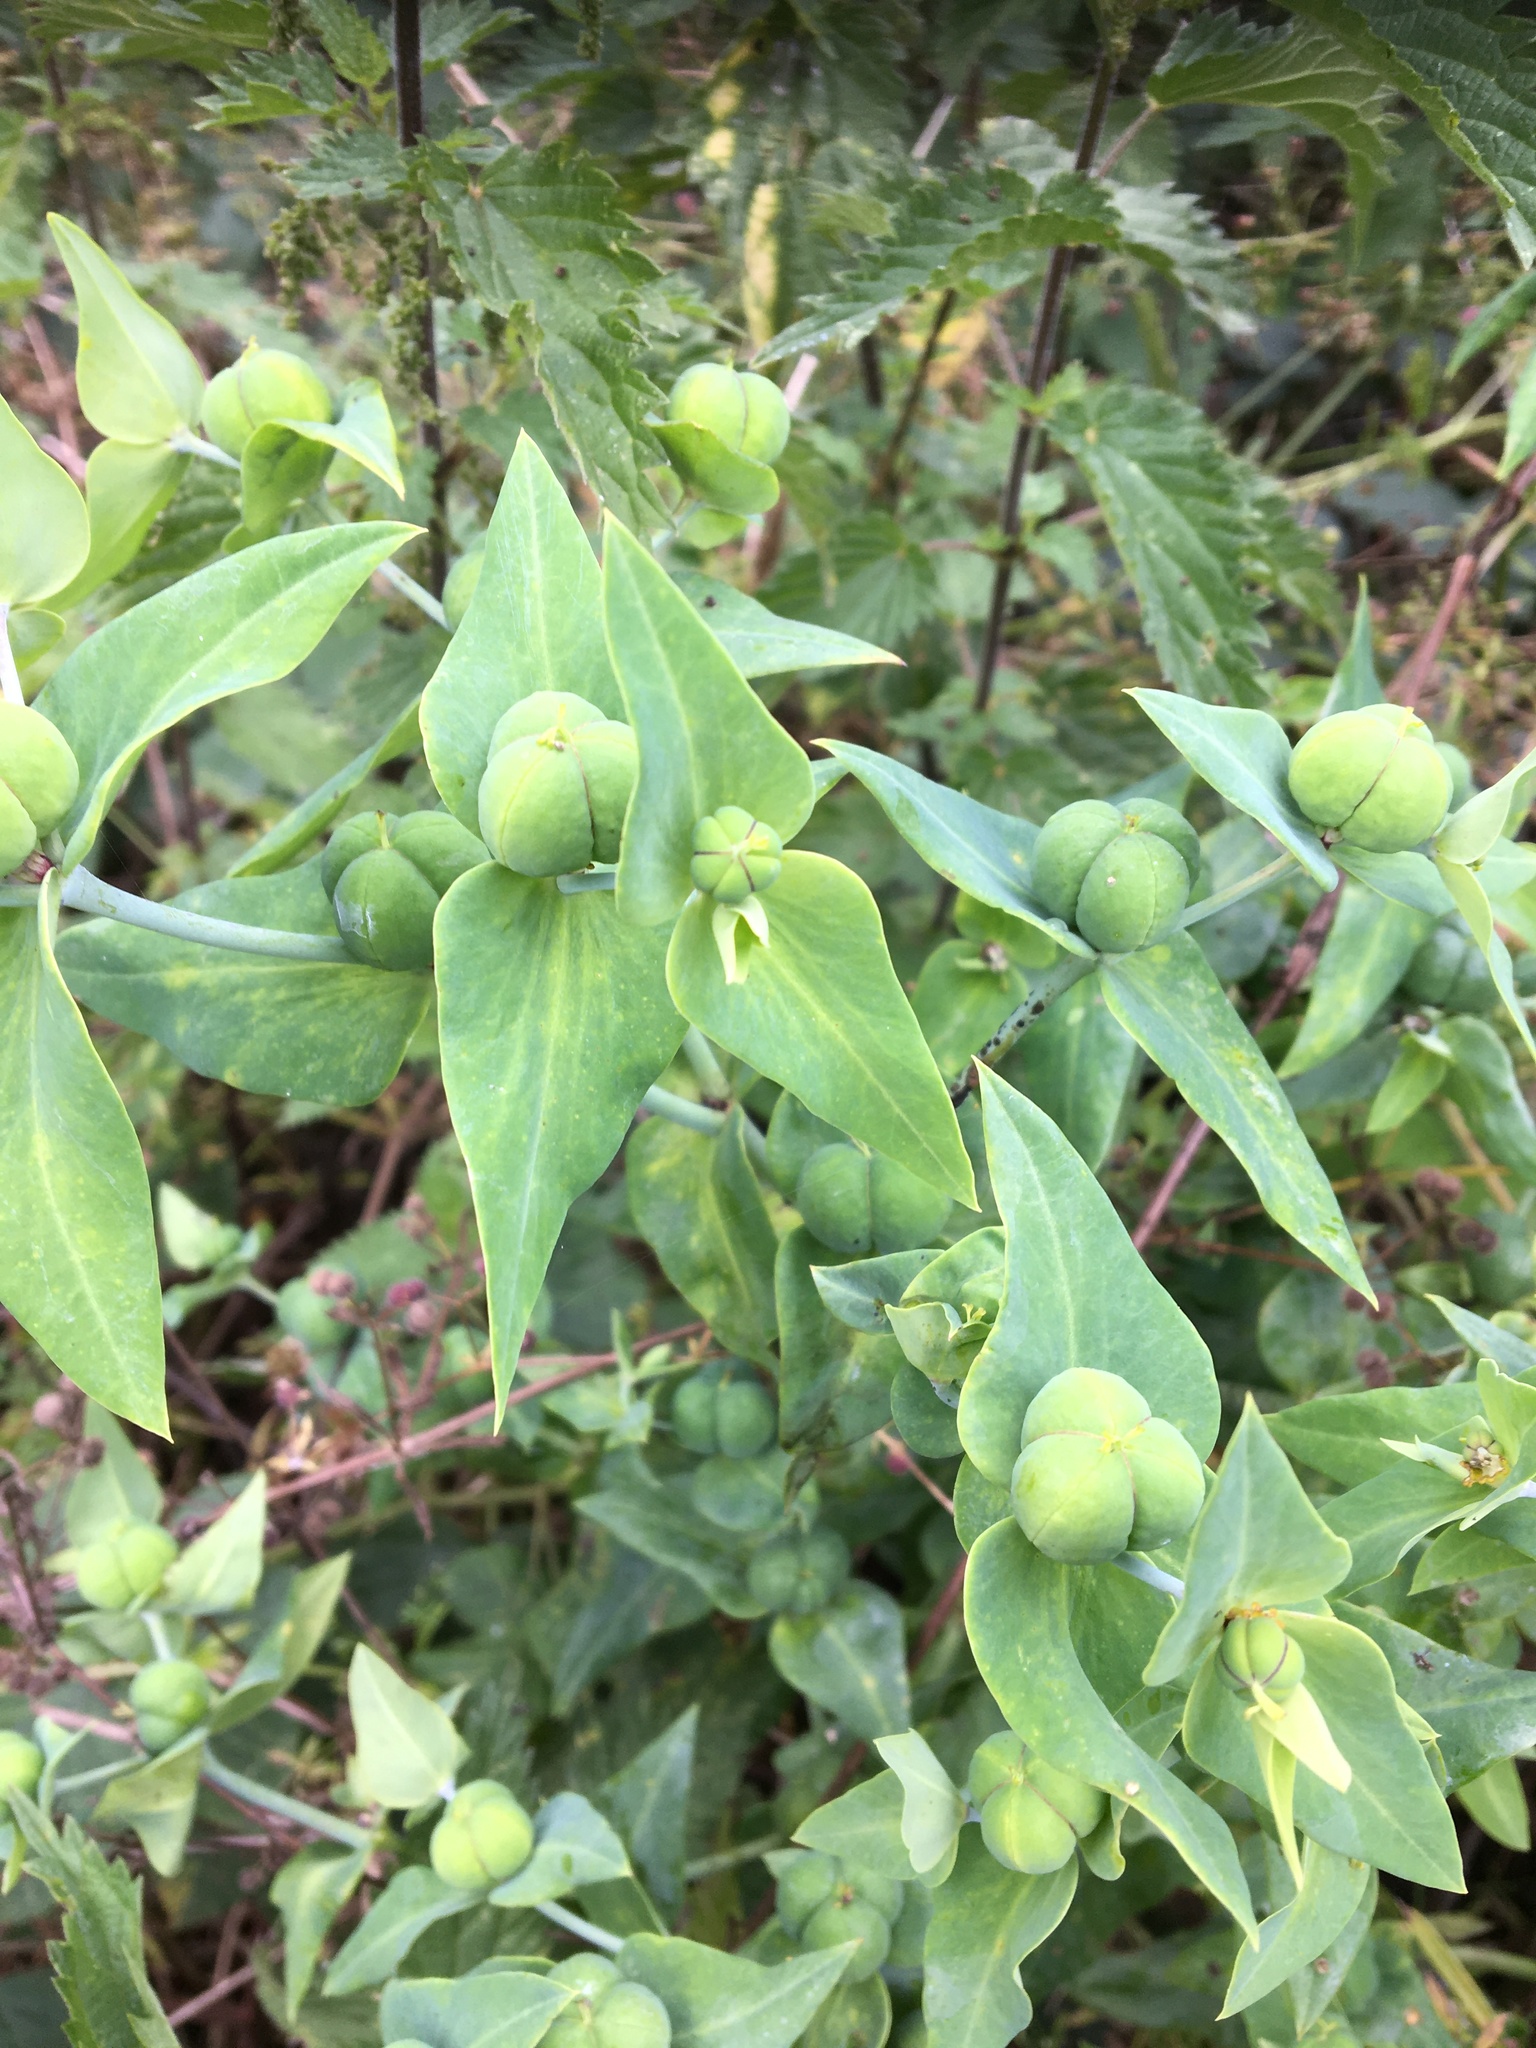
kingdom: Plantae
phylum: Tracheophyta
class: Magnoliopsida
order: Malpighiales
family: Euphorbiaceae
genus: Euphorbia
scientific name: Euphorbia lathyris
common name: Caper spurge
